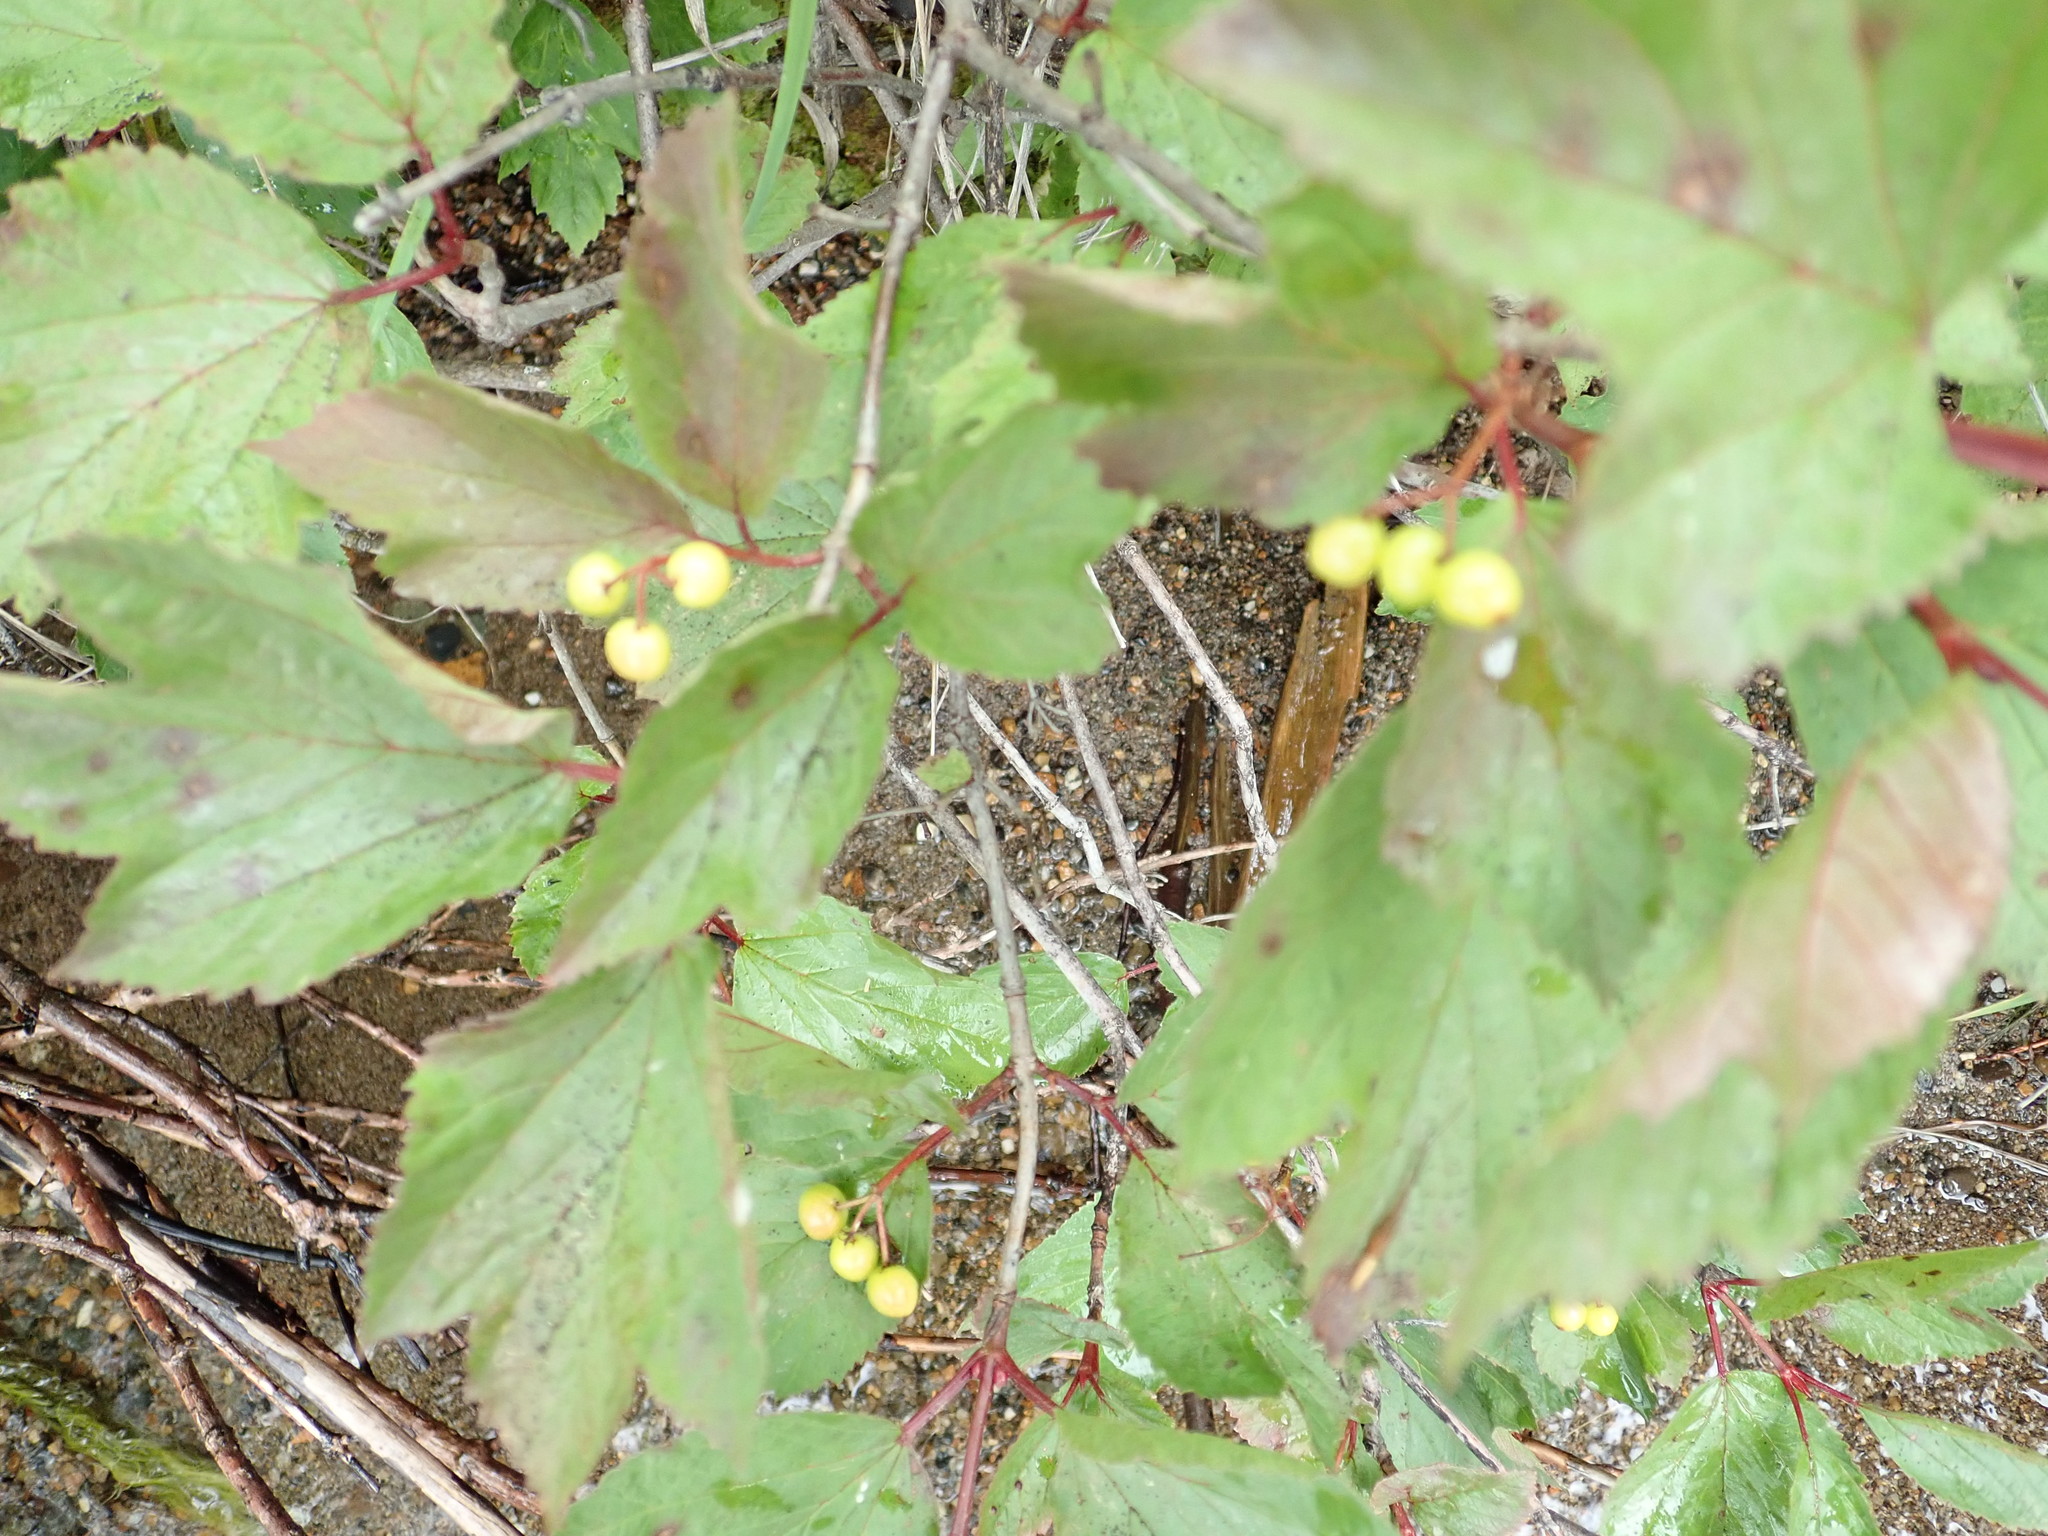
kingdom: Plantae
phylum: Tracheophyta
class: Magnoliopsida
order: Dipsacales
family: Viburnaceae
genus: Viburnum
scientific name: Viburnum edule
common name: Mooseberry
